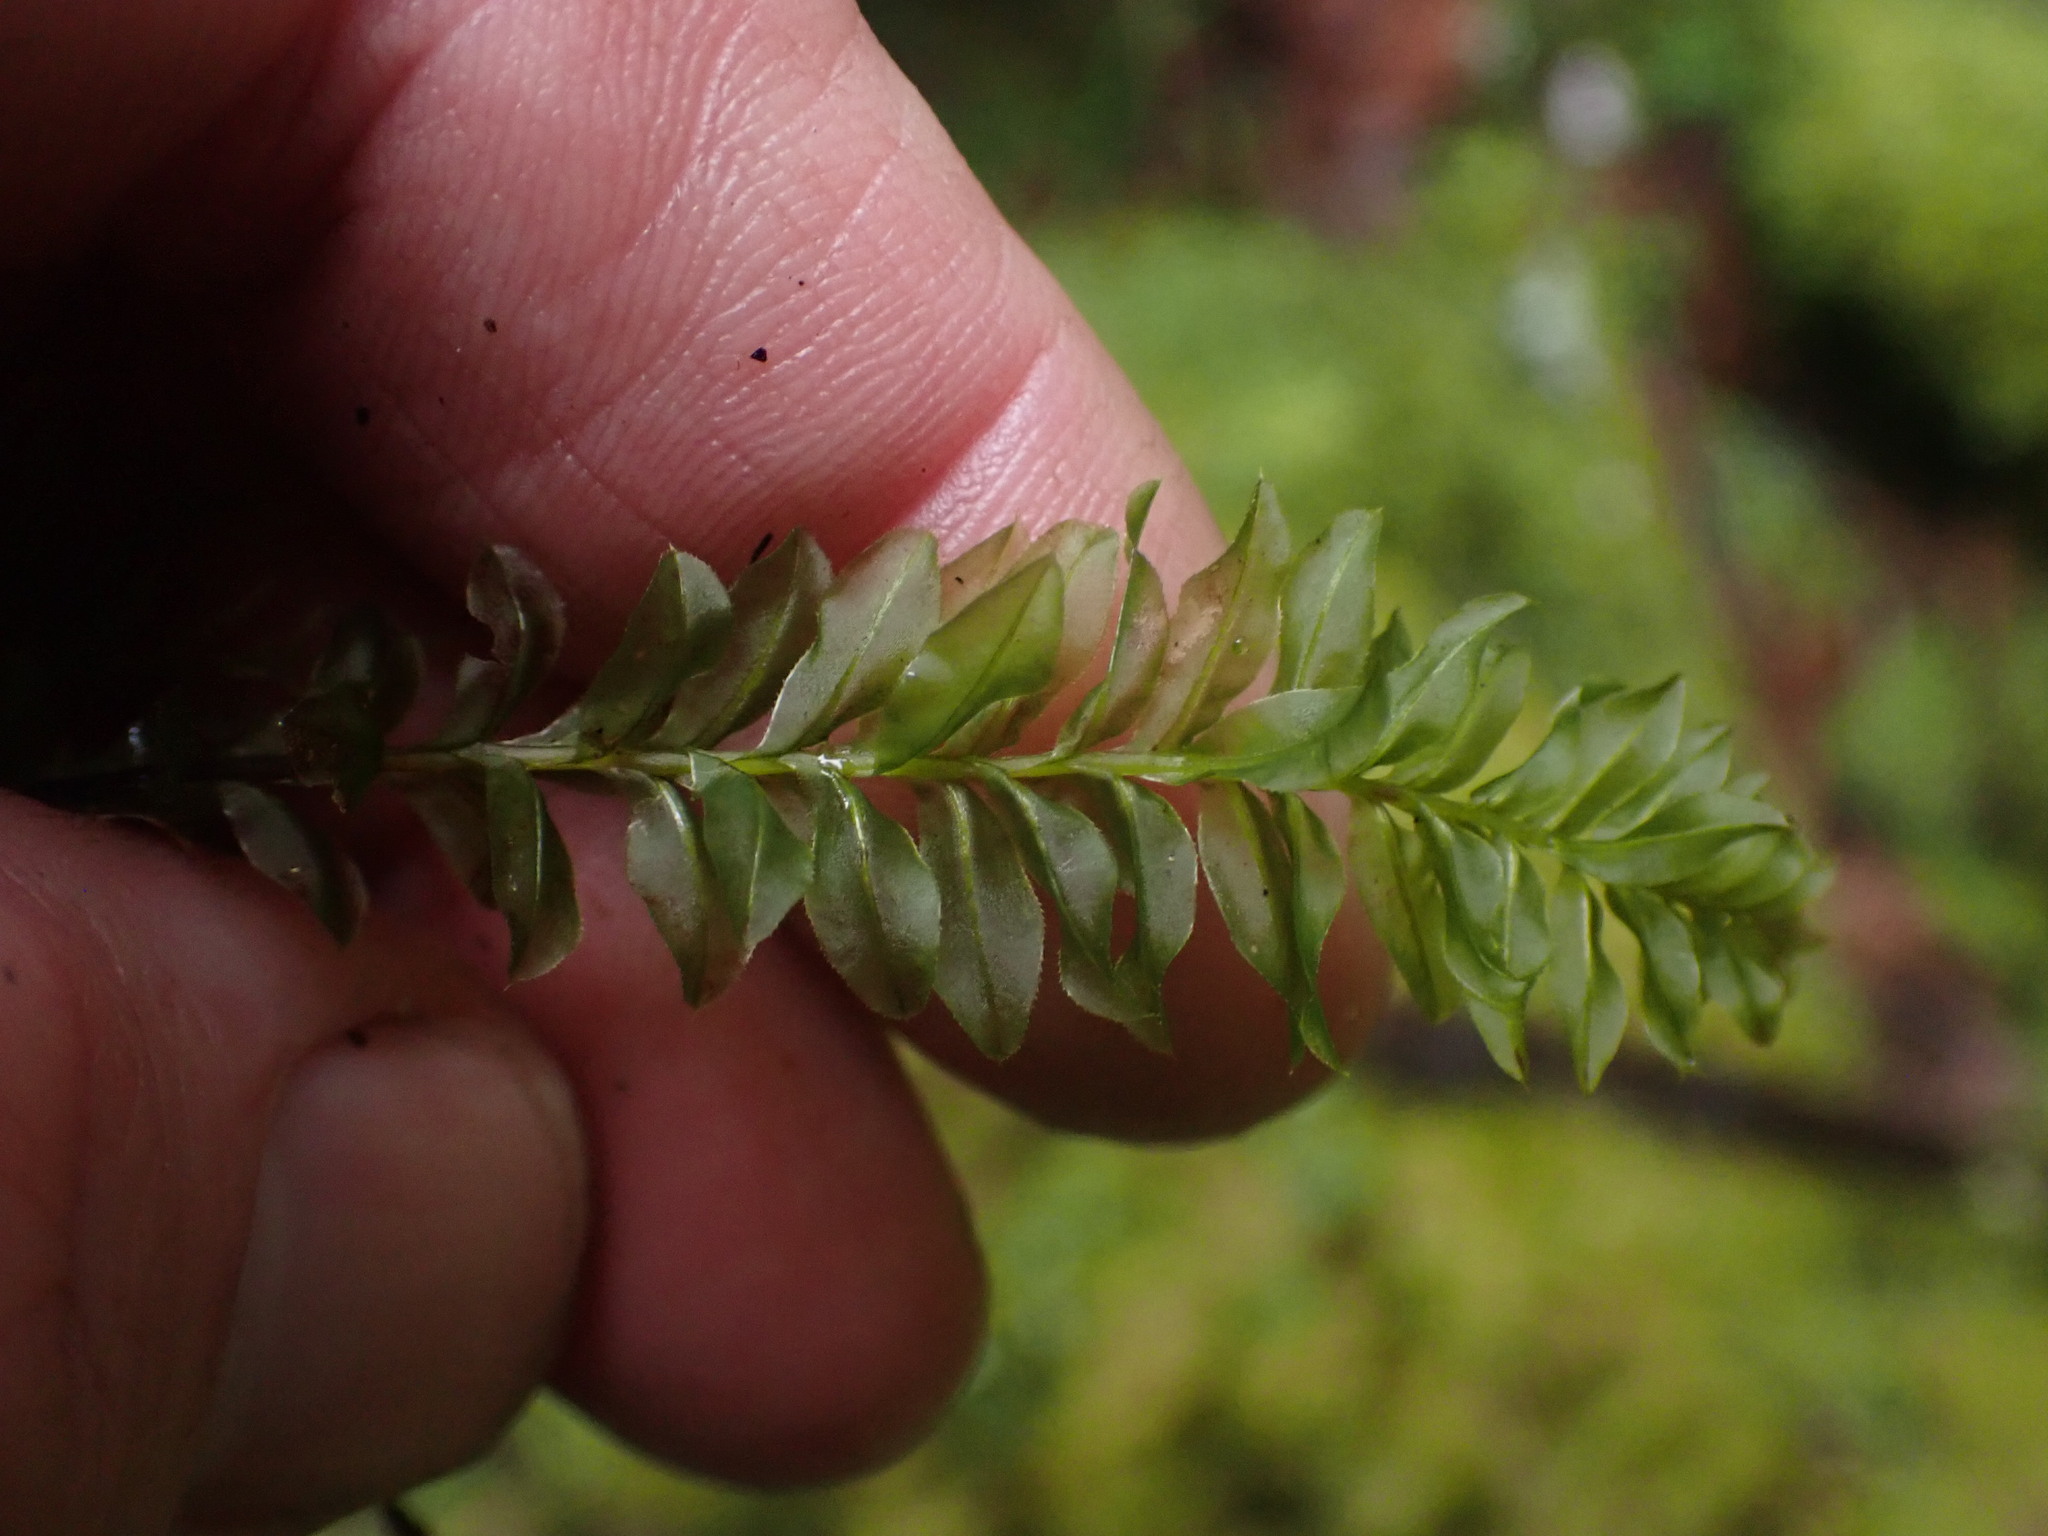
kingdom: Plantae
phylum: Bryophyta
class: Bryopsida
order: Bryales
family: Mniaceae
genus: Plagiomnium
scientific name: Plagiomnium insigne
